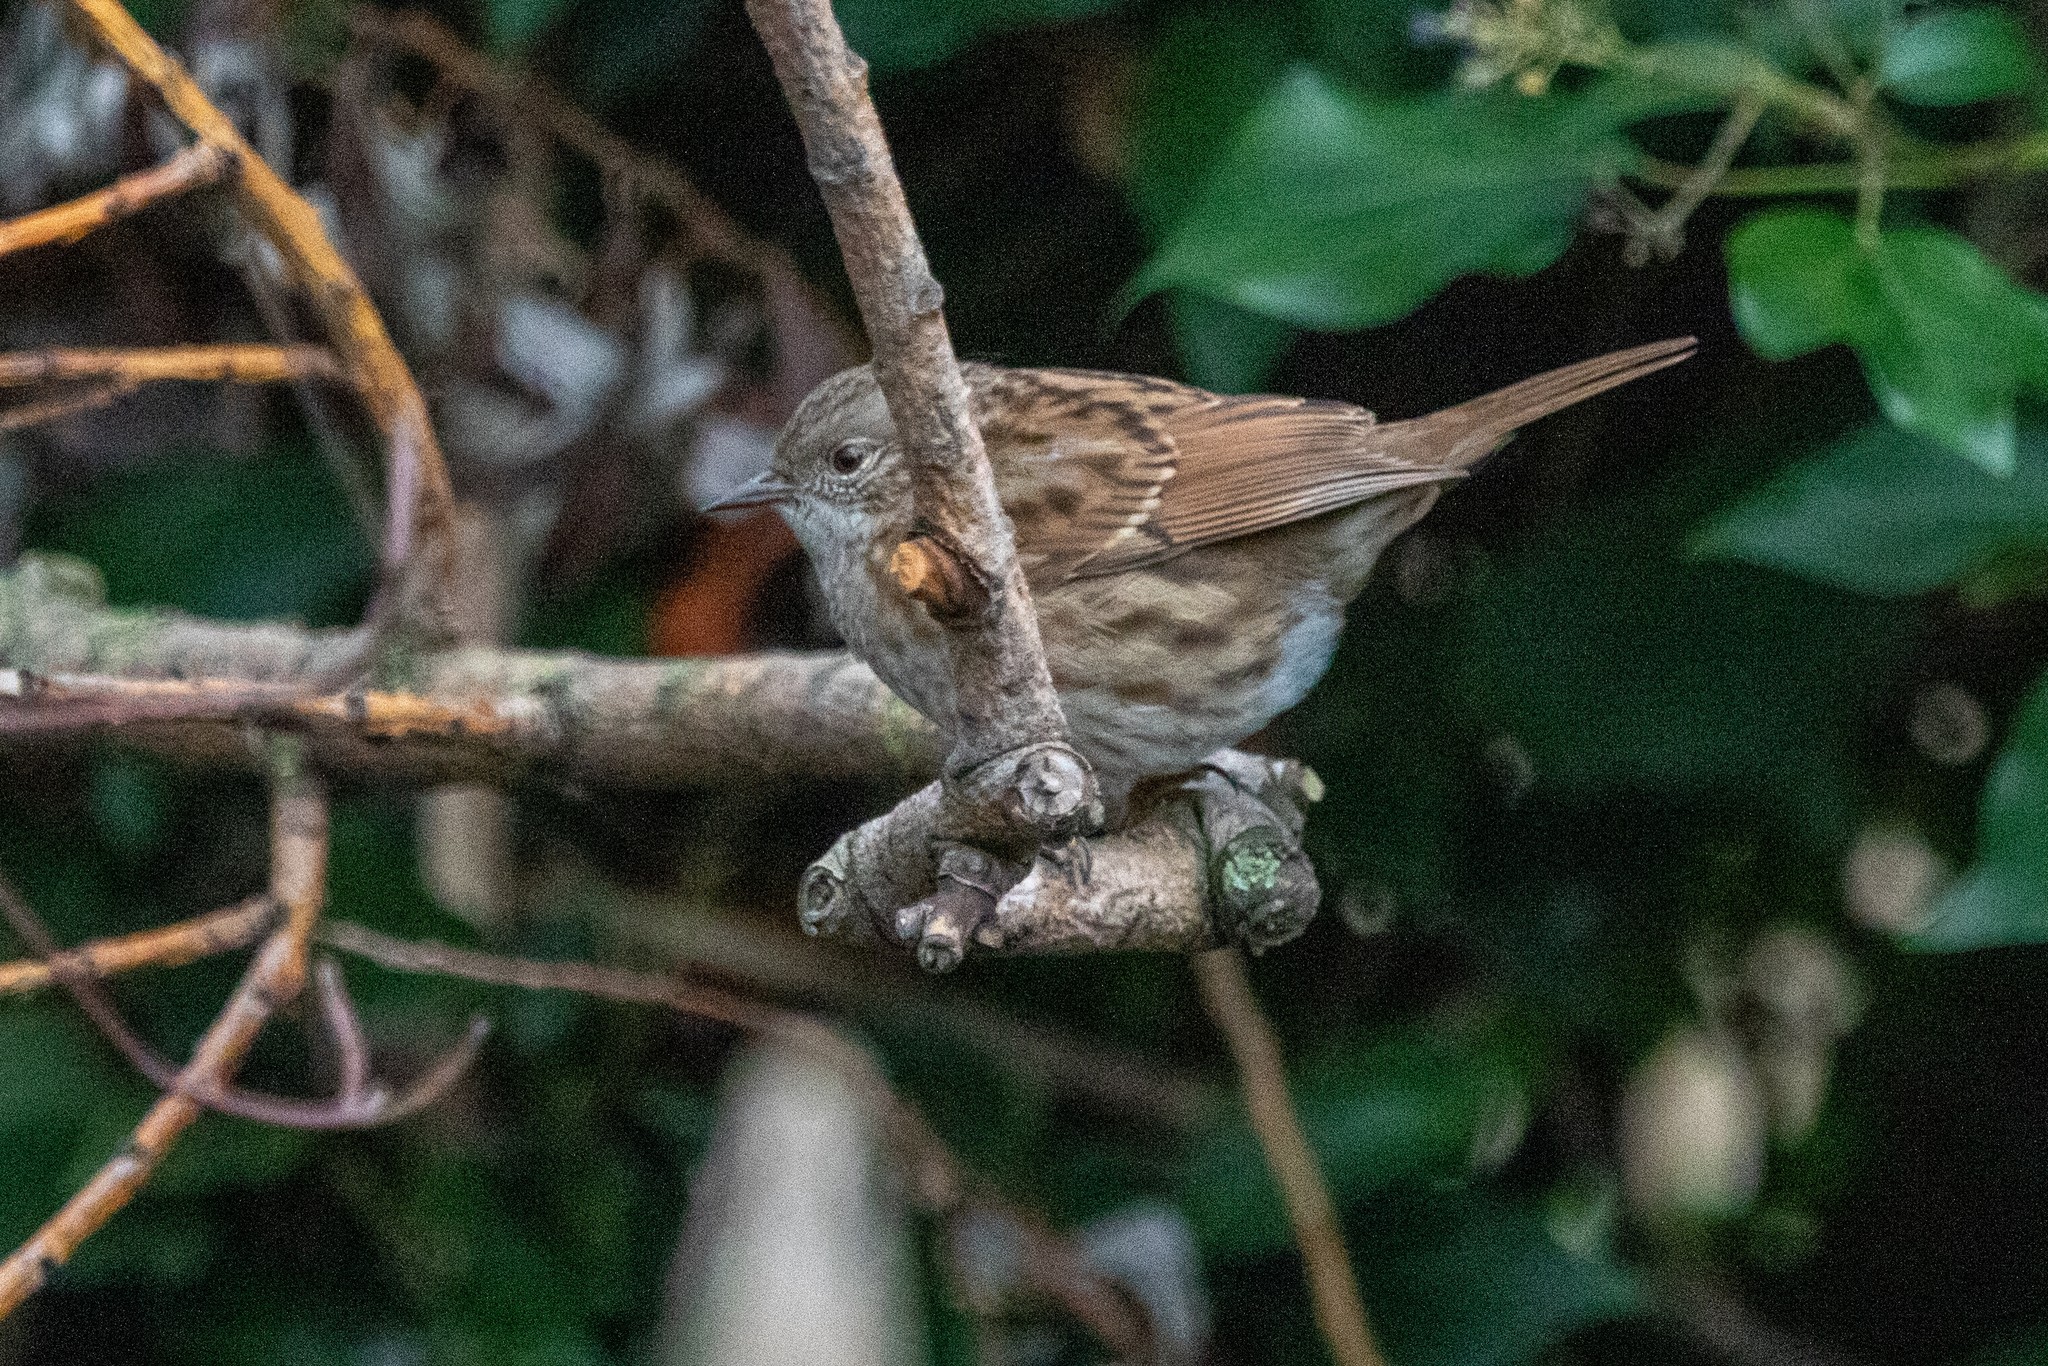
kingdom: Animalia
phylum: Chordata
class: Aves
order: Passeriformes
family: Prunellidae
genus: Prunella
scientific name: Prunella modularis
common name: Dunnock
